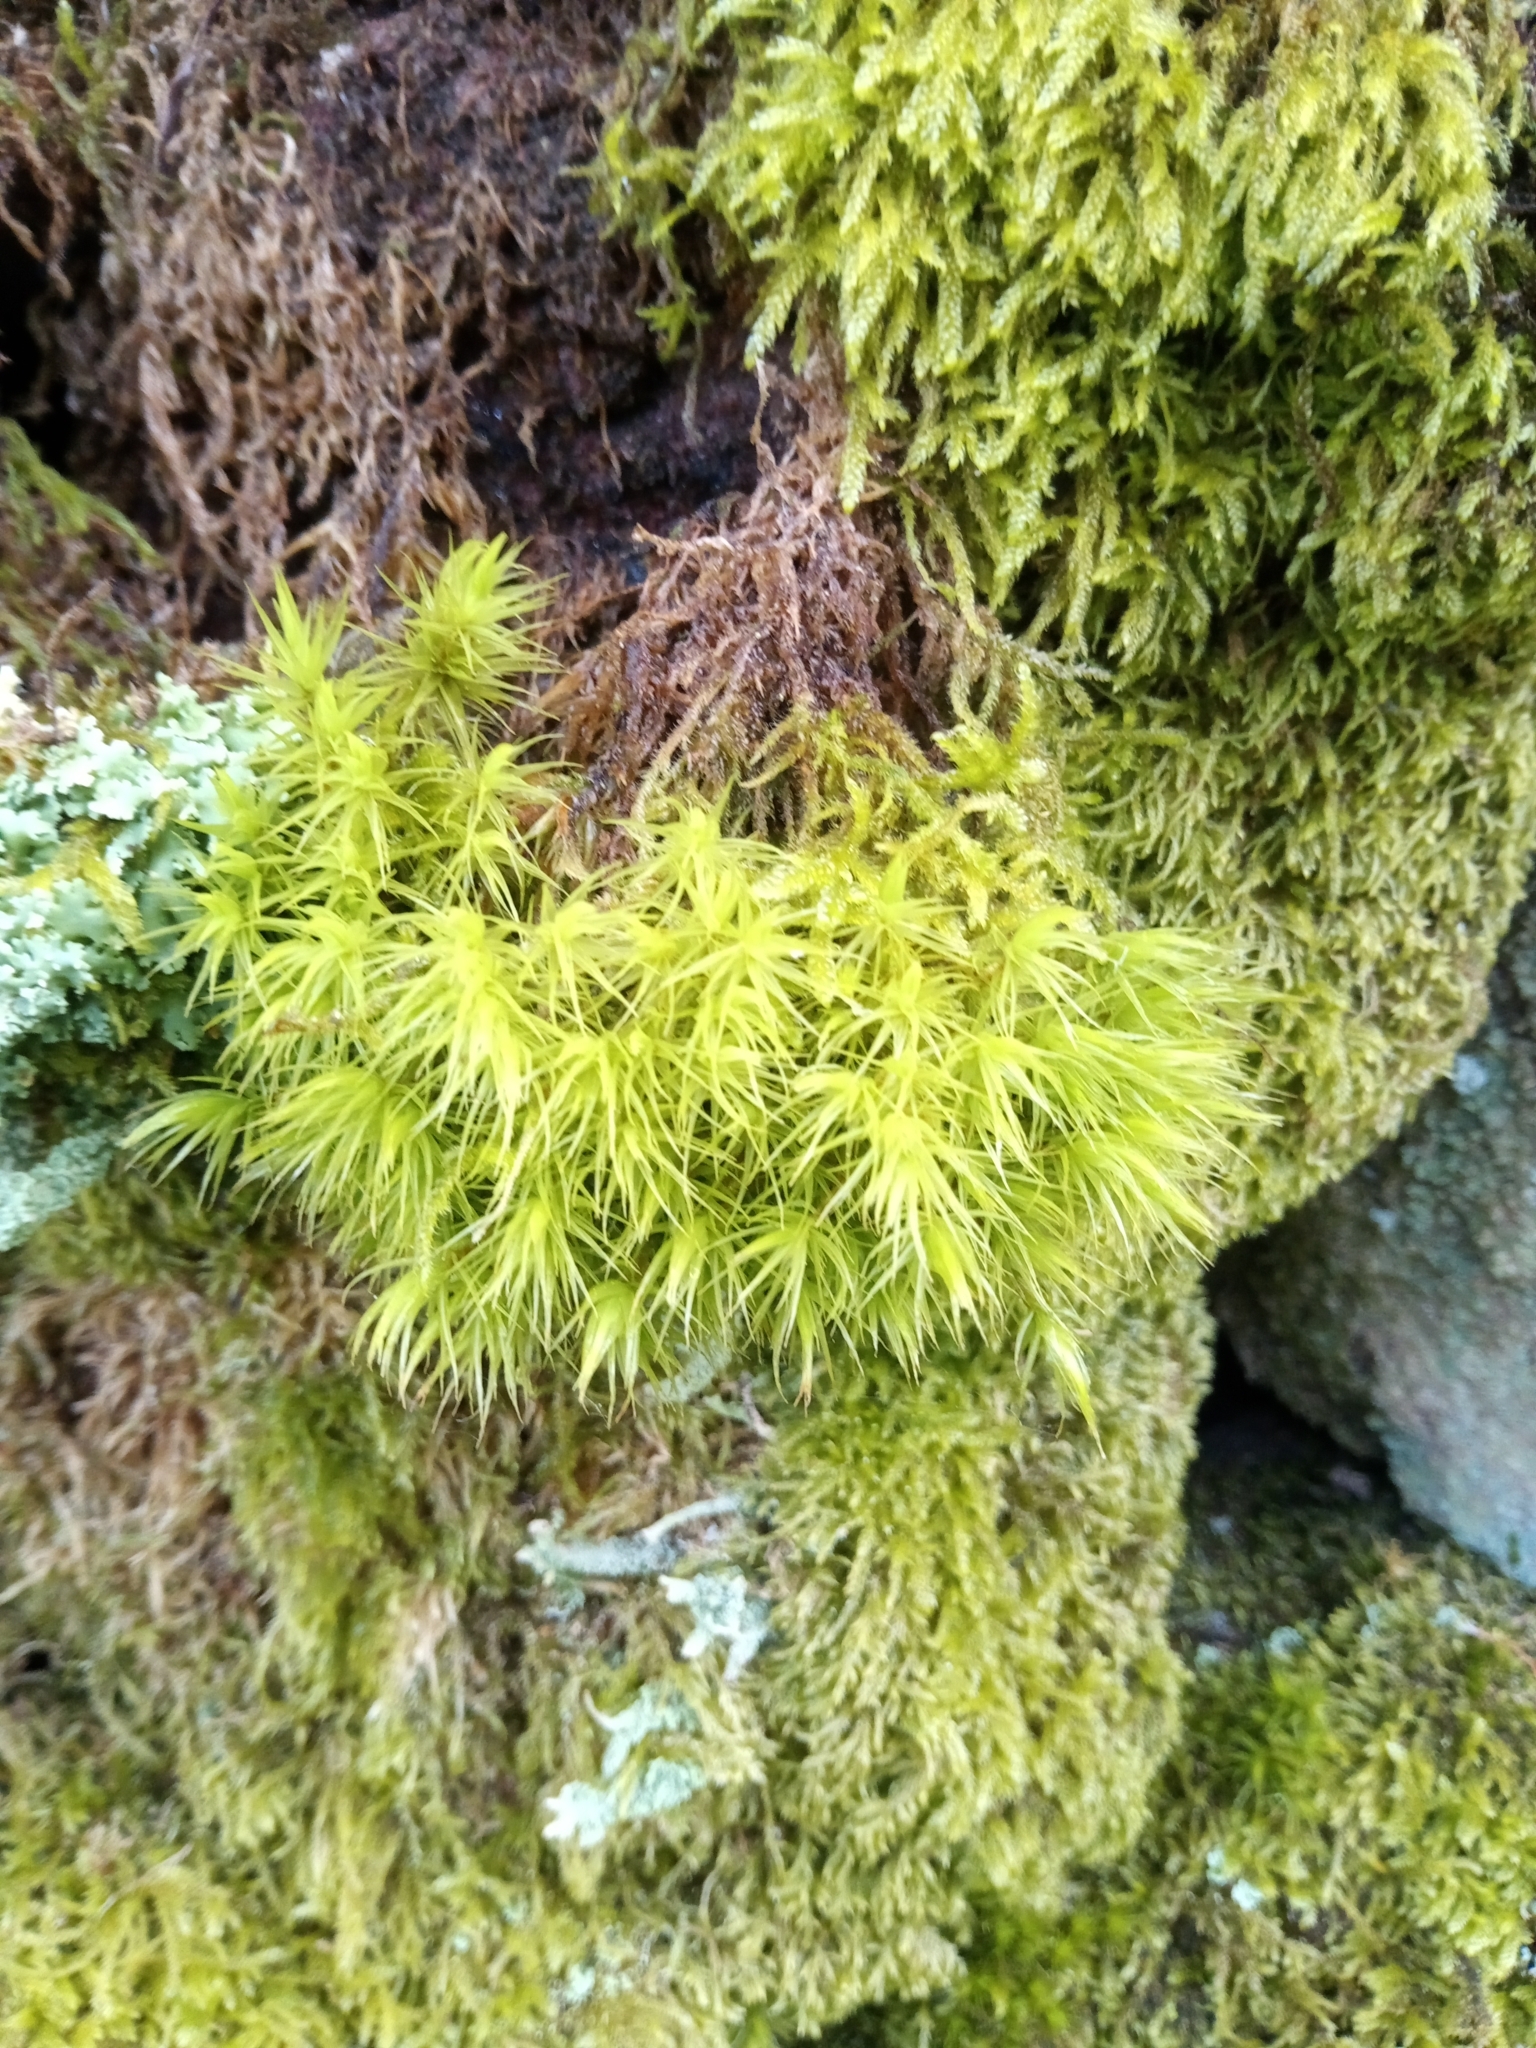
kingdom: Plantae
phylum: Bryophyta
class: Bryopsida
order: Dicranales
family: Dicranaceae
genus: Dicranum
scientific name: Dicranum scoparium
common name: Broom fork-moss
